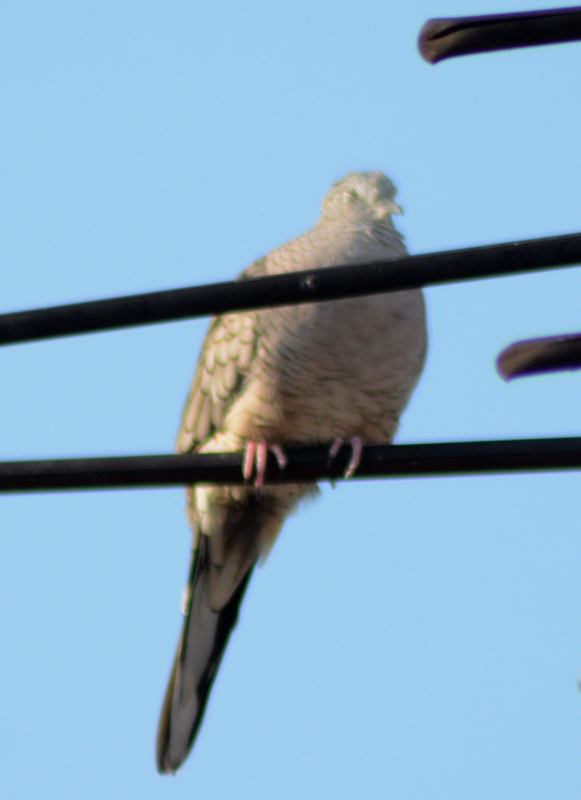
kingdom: Animalia
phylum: Chordata
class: Aves
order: Columbiformes
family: Columbidae
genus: Columbina
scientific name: Columbina inca
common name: Inca dove
